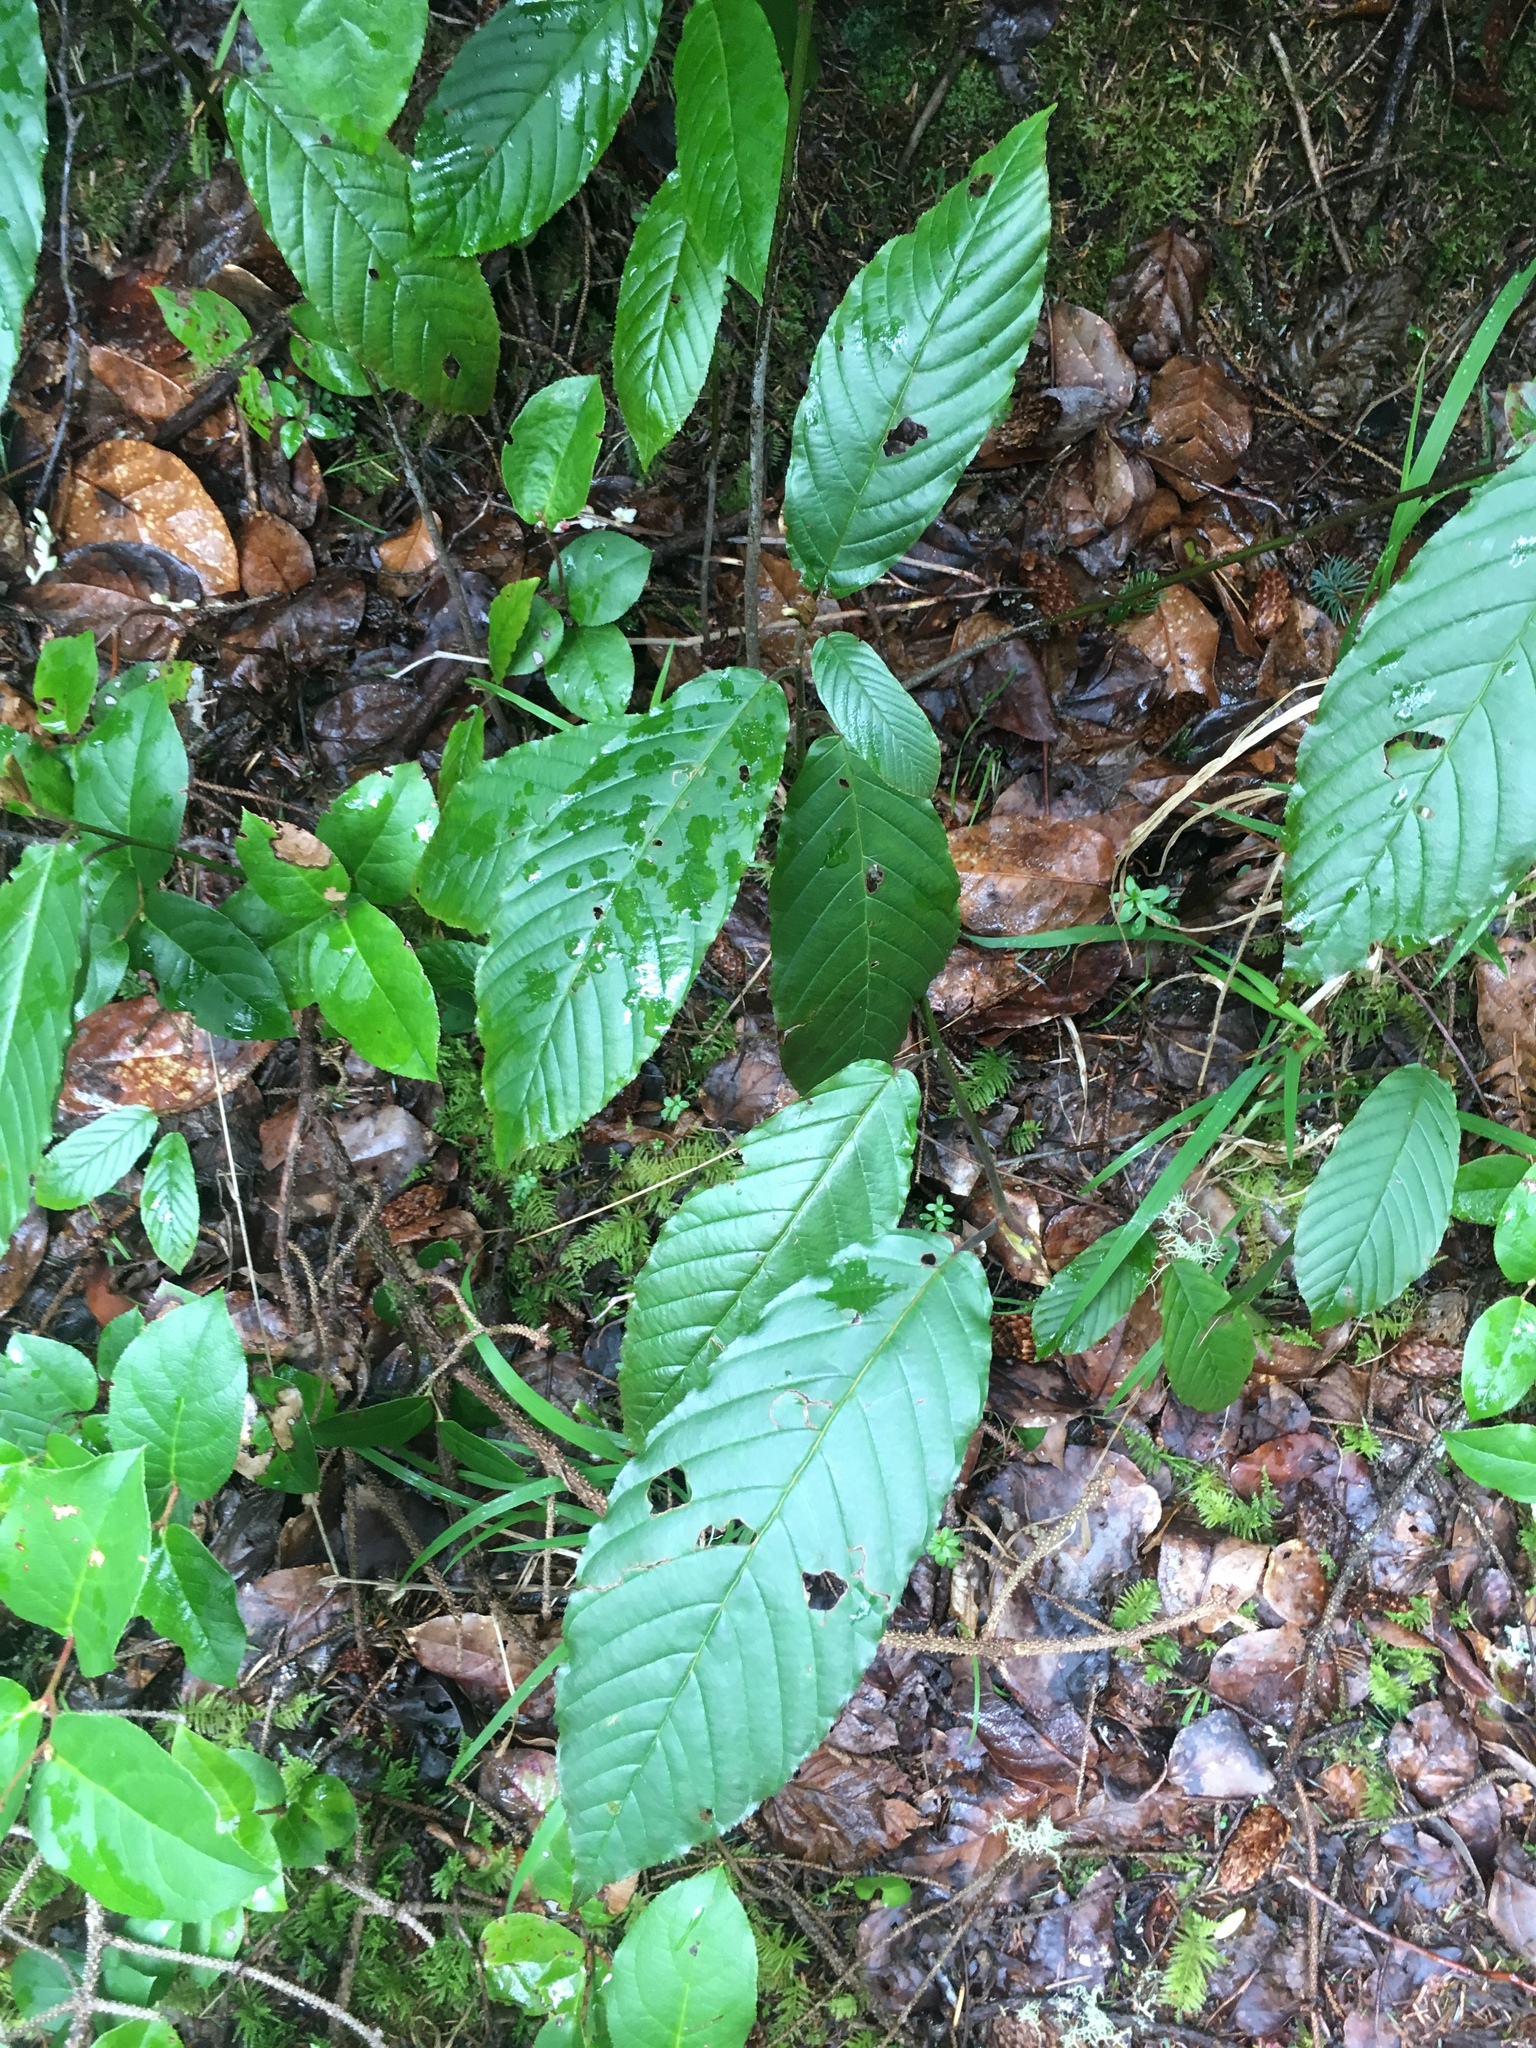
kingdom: Plantae
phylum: Tracheophyta
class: Magnoliopsida
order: Rosales
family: Rhamnaceae
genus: Frangula
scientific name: Frangula purshiana
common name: Cascara buckthorn
